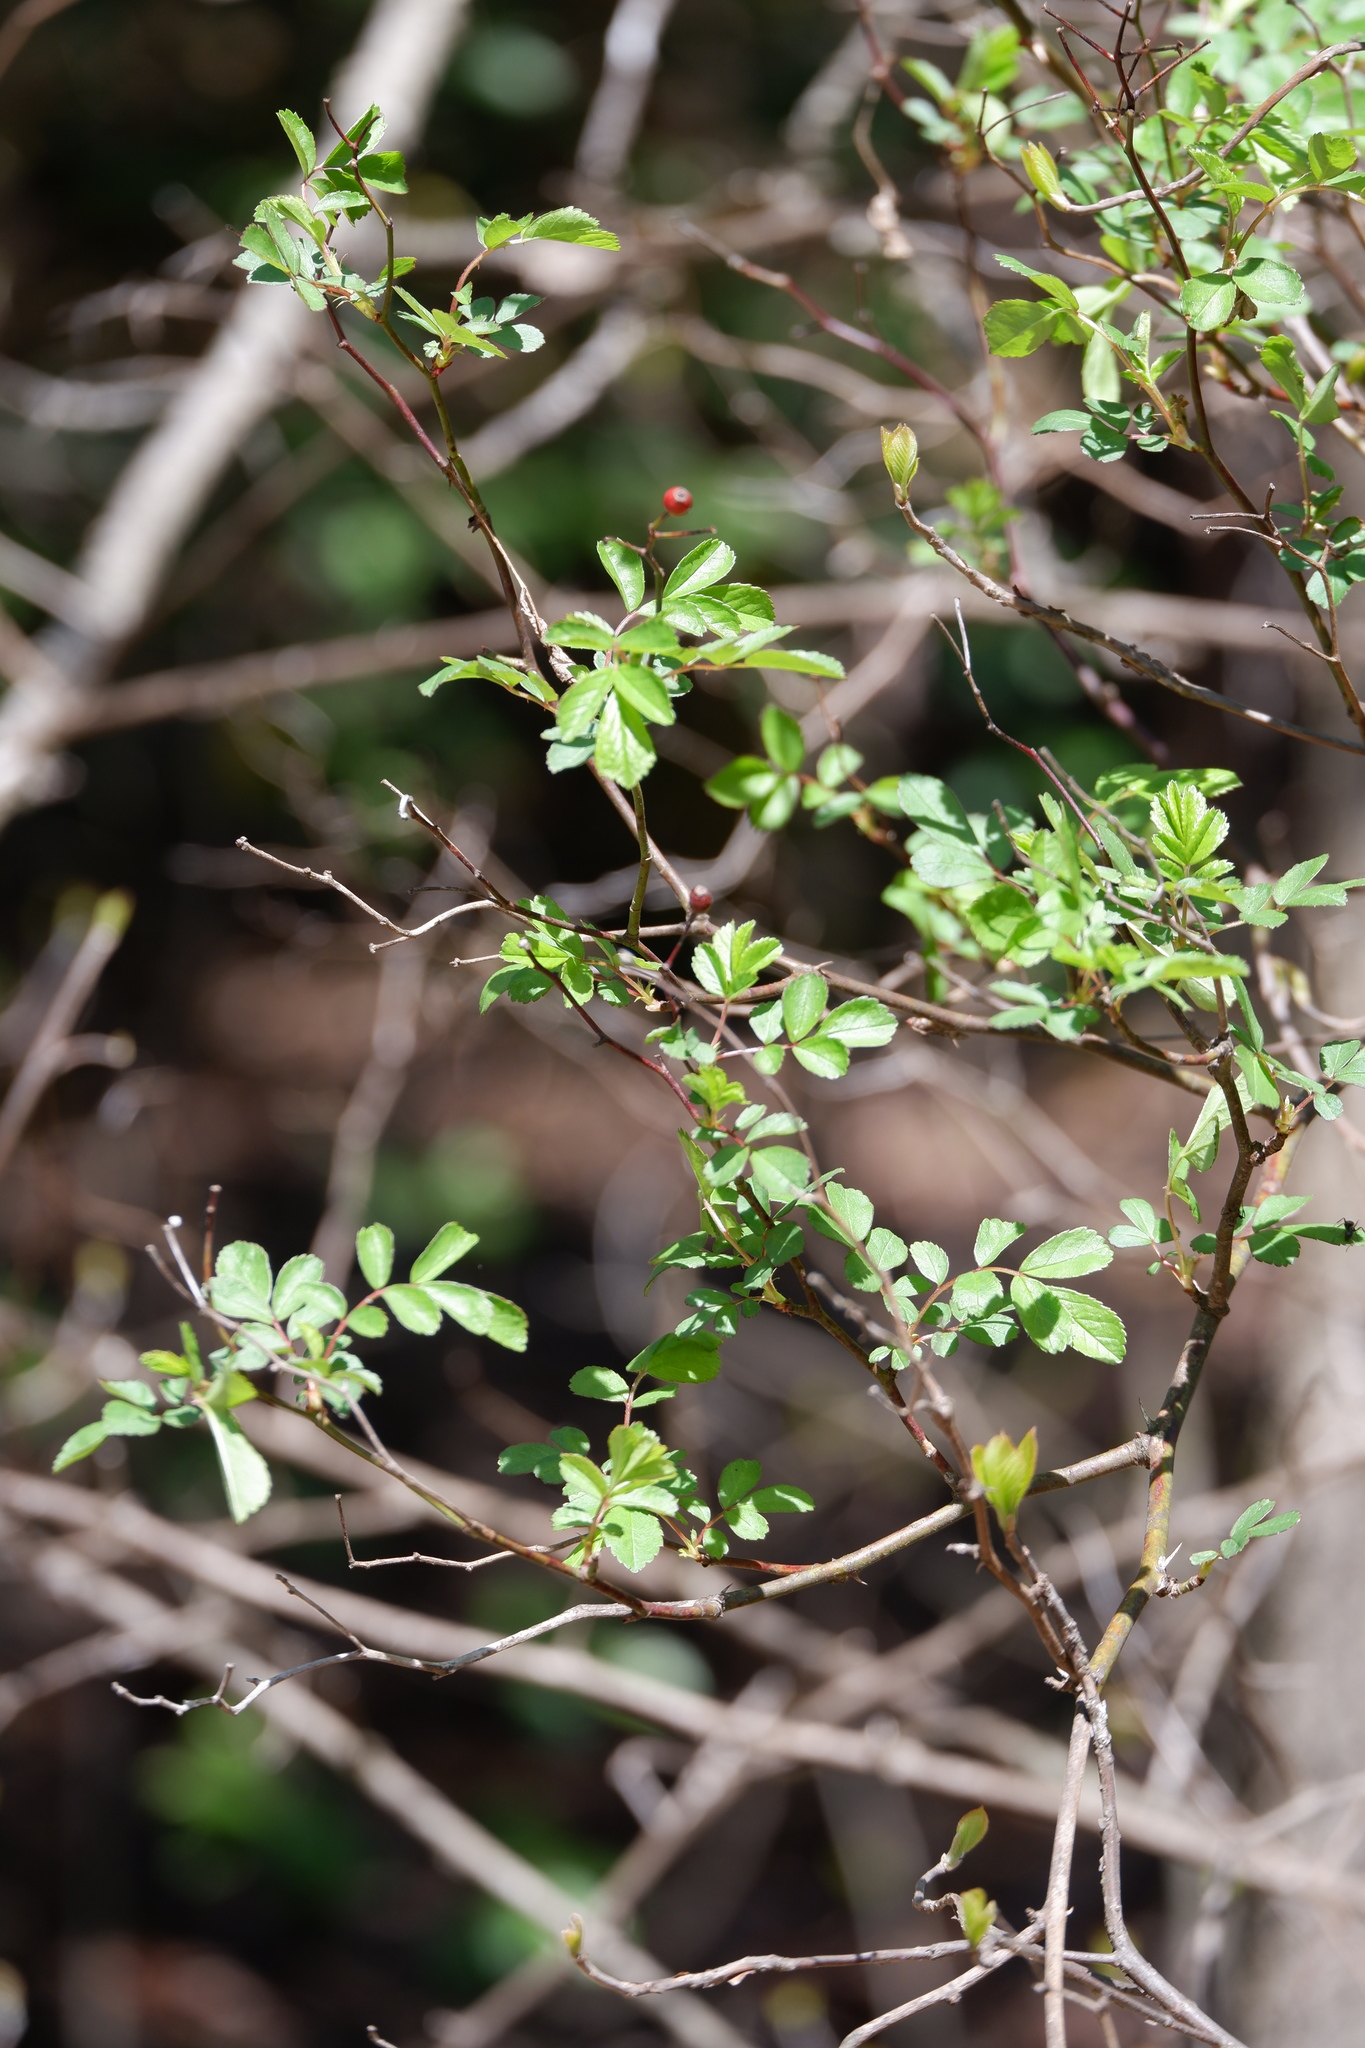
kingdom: Plantae
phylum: Tracheophyta
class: Magnoliopsida
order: Rosales
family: Rosaceae
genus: Rosa
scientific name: Rosa multiflora
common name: Multiflora rose
